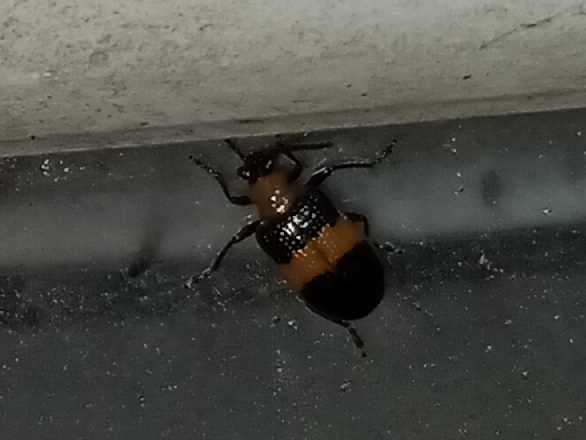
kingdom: Animalia
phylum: Arthropoda
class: Insecta
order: Coleoptera
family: Chrysomelidae
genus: Lema
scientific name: Lema solani
